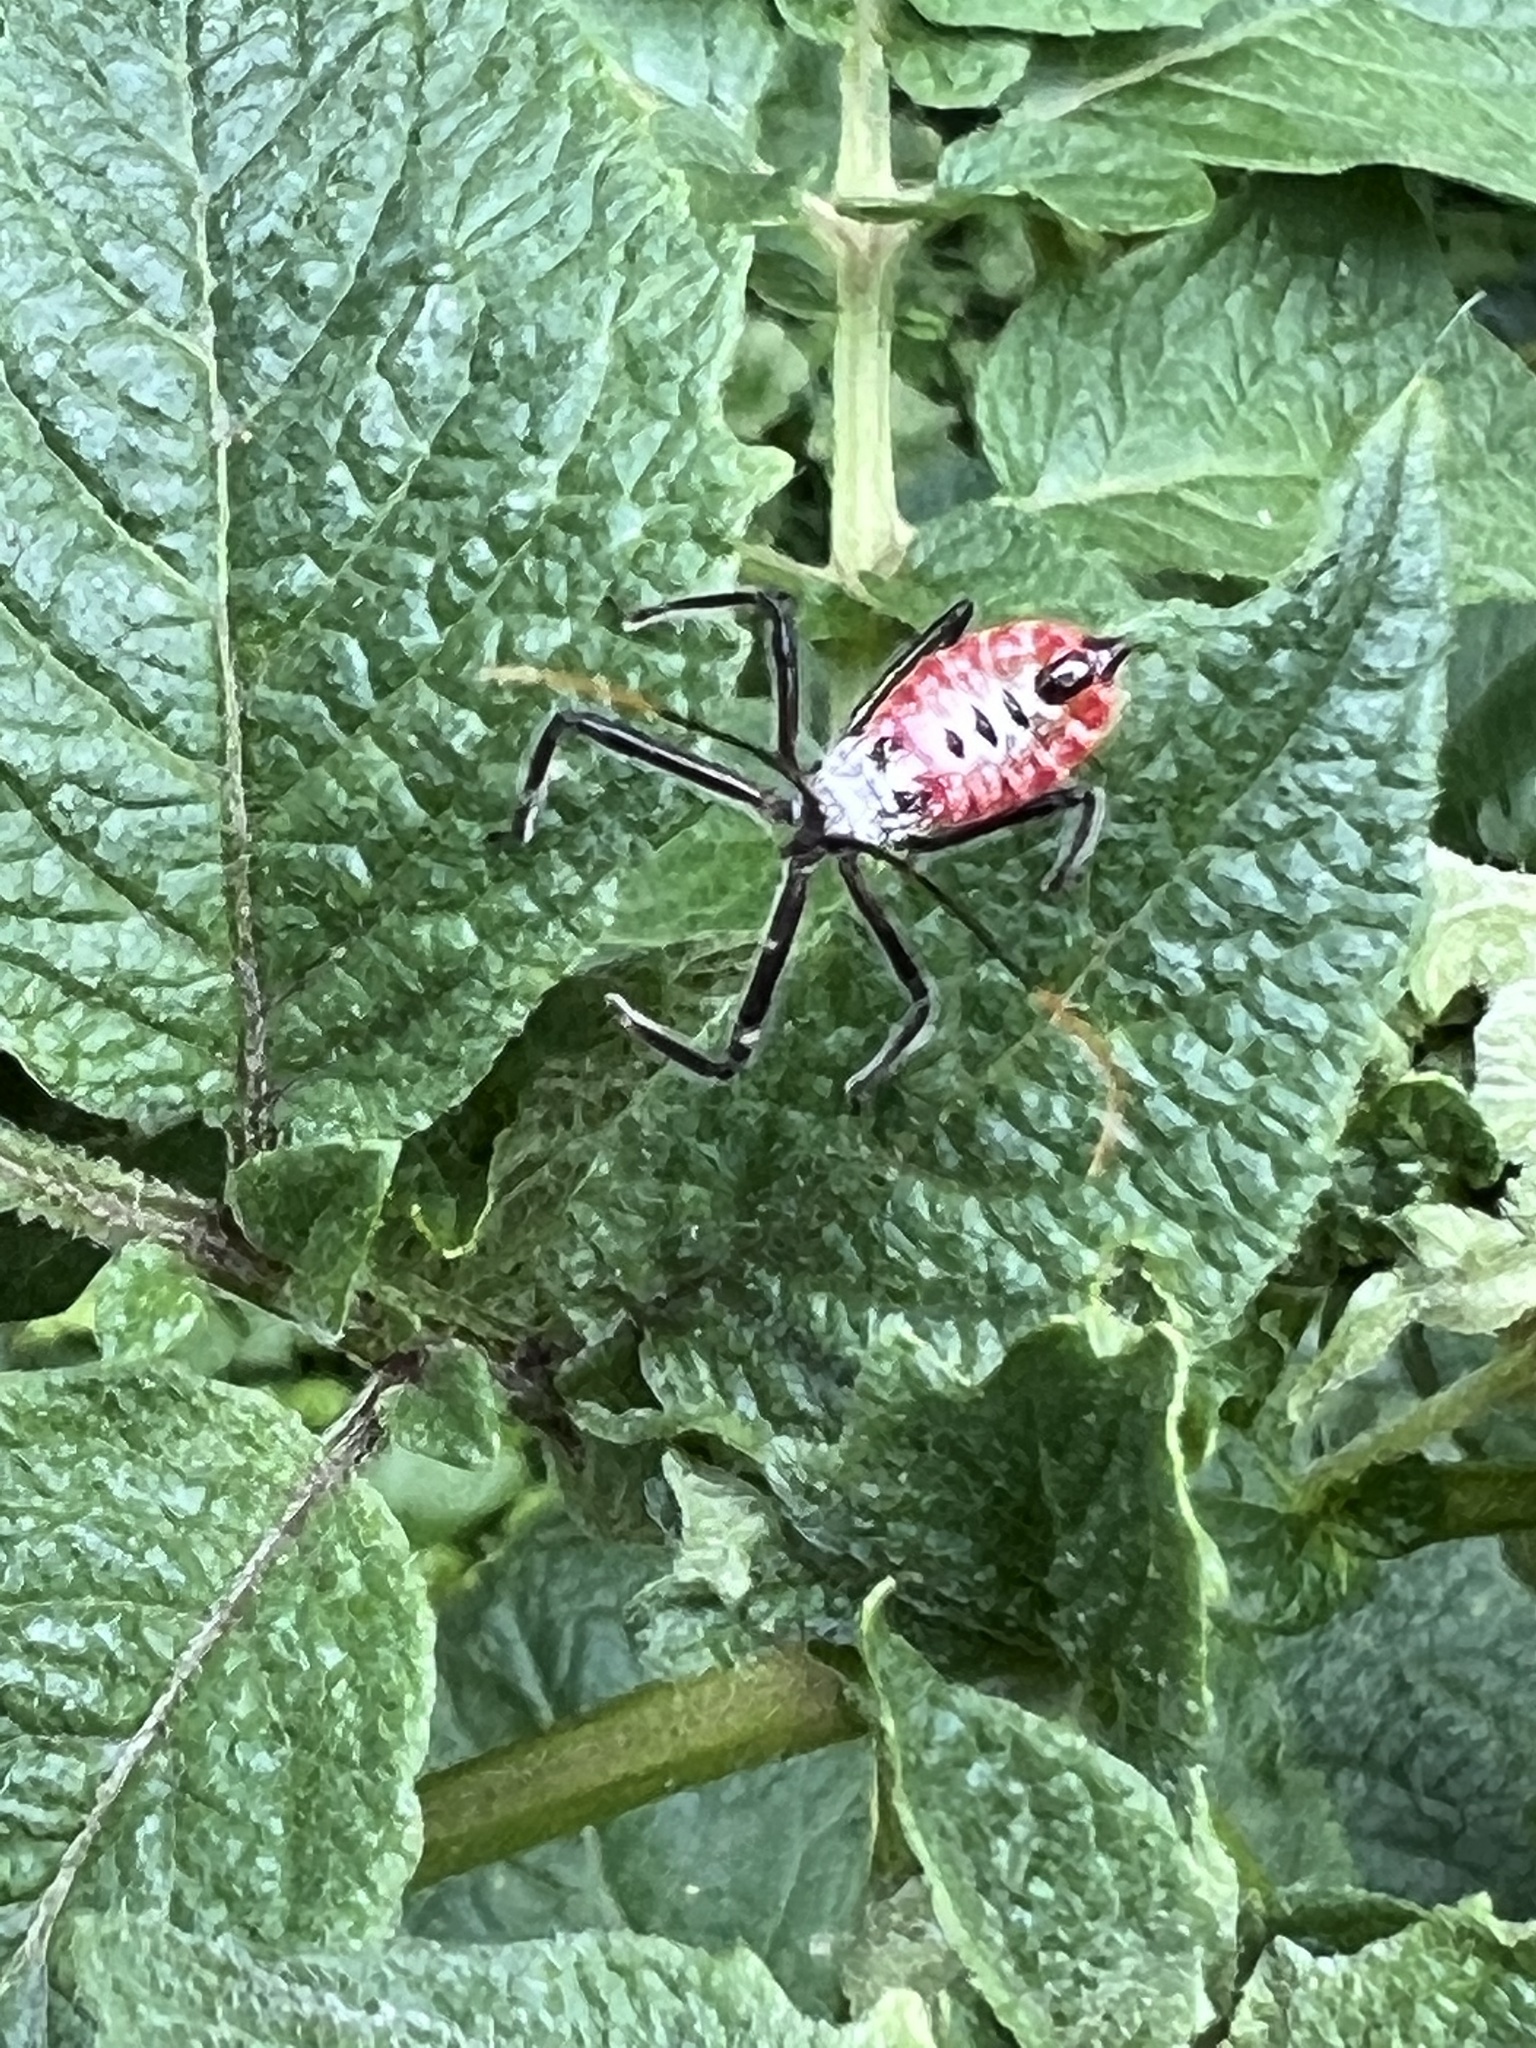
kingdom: Animalia
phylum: Arthropoda
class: Insecta
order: Hemiptera
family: Reduviidae
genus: Arilus
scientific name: Arilus cristatus
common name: North american wheel bug
